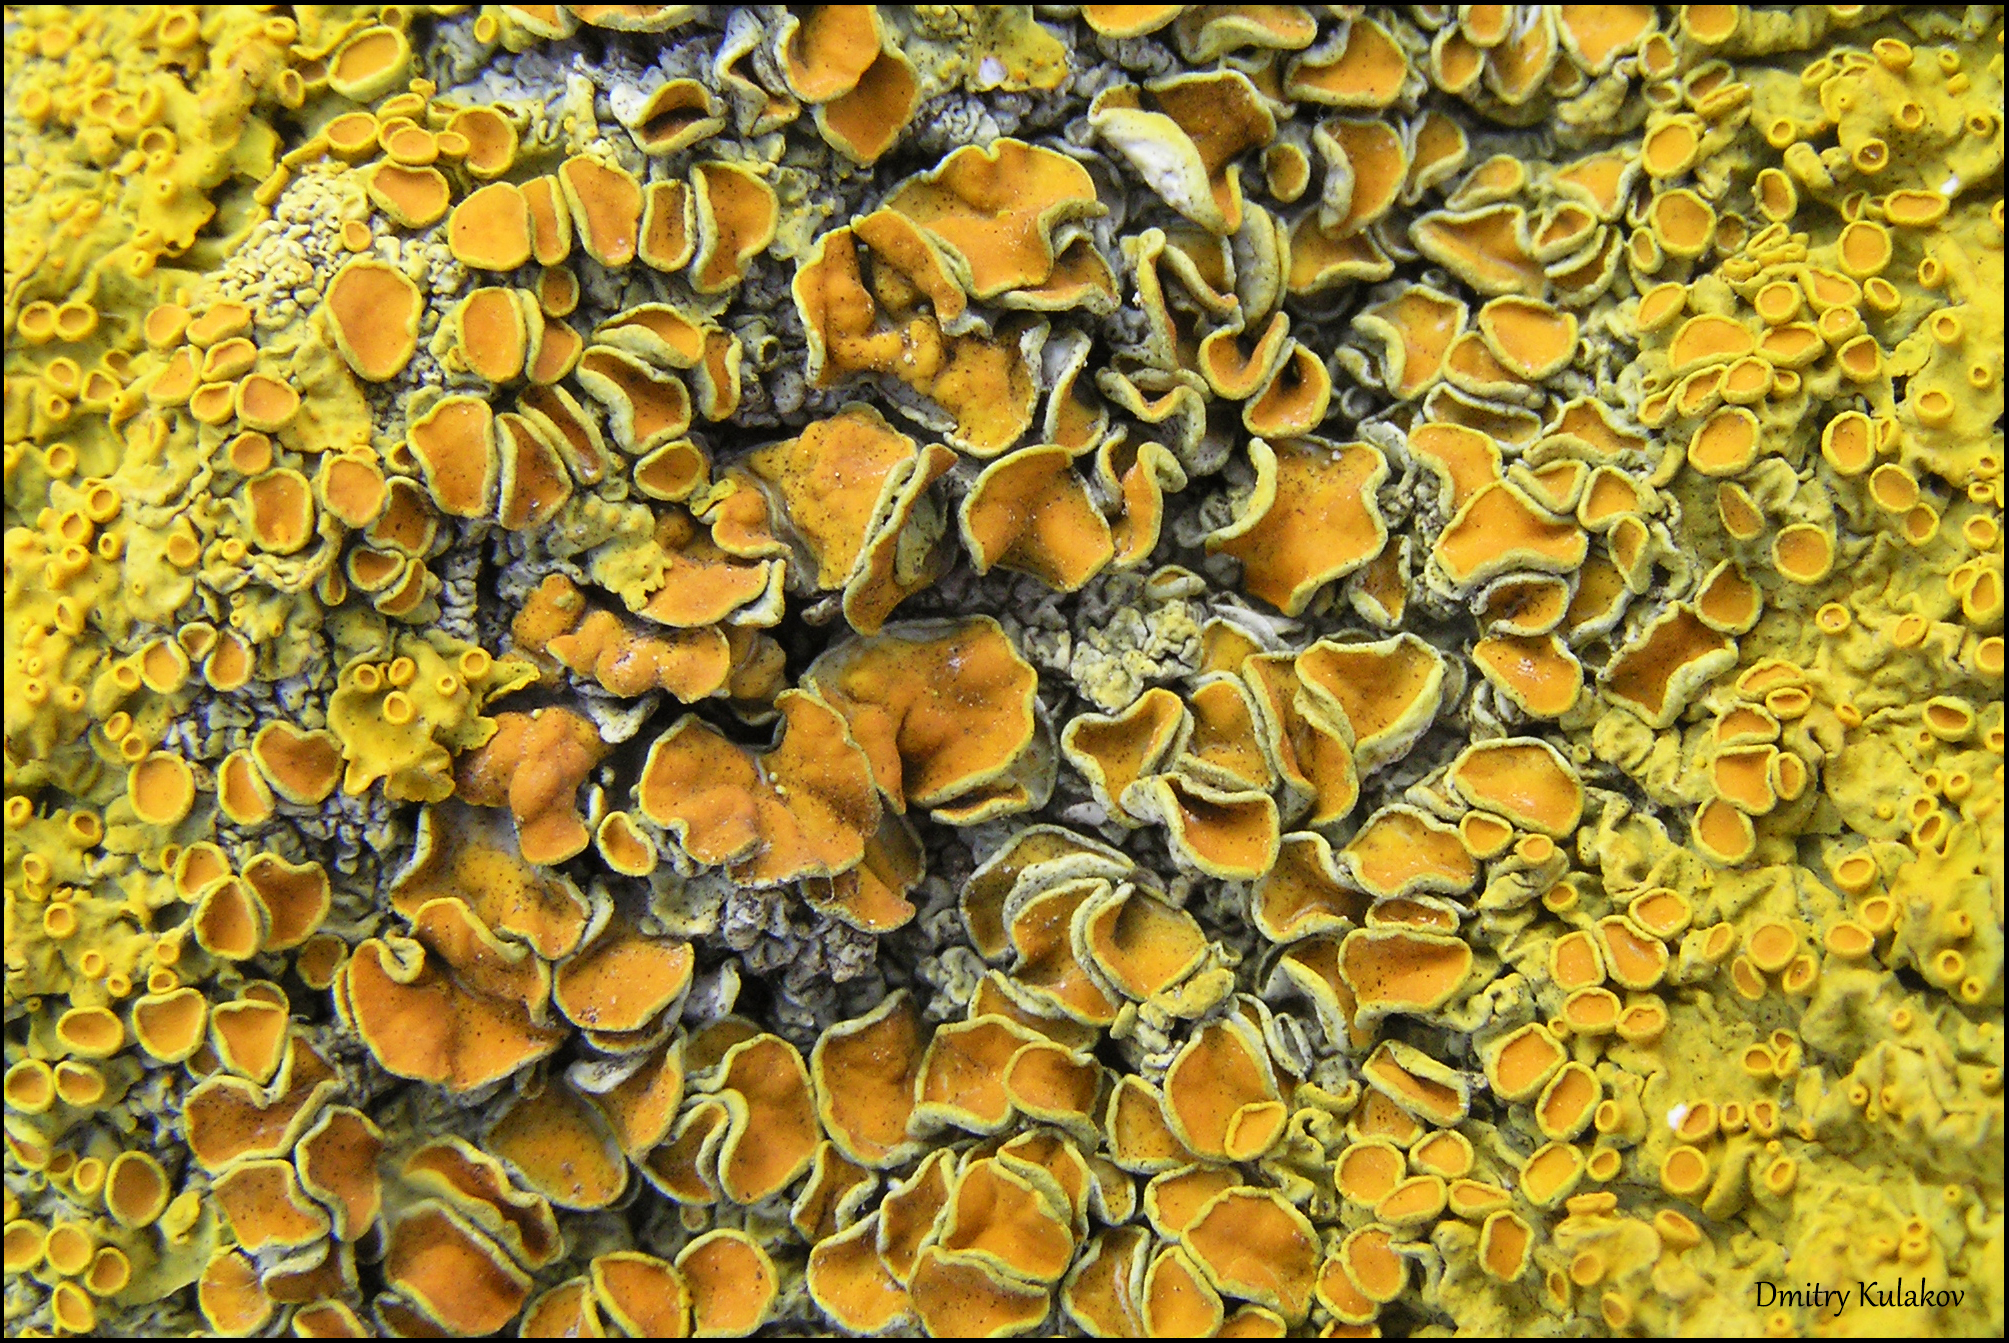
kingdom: Fungi
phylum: Ascomycota
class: Lecanoromycetes
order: Teloschistales
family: Teloschistaceae
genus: Xanthoria
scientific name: Xanthoria parietina
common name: Common orange lichen
